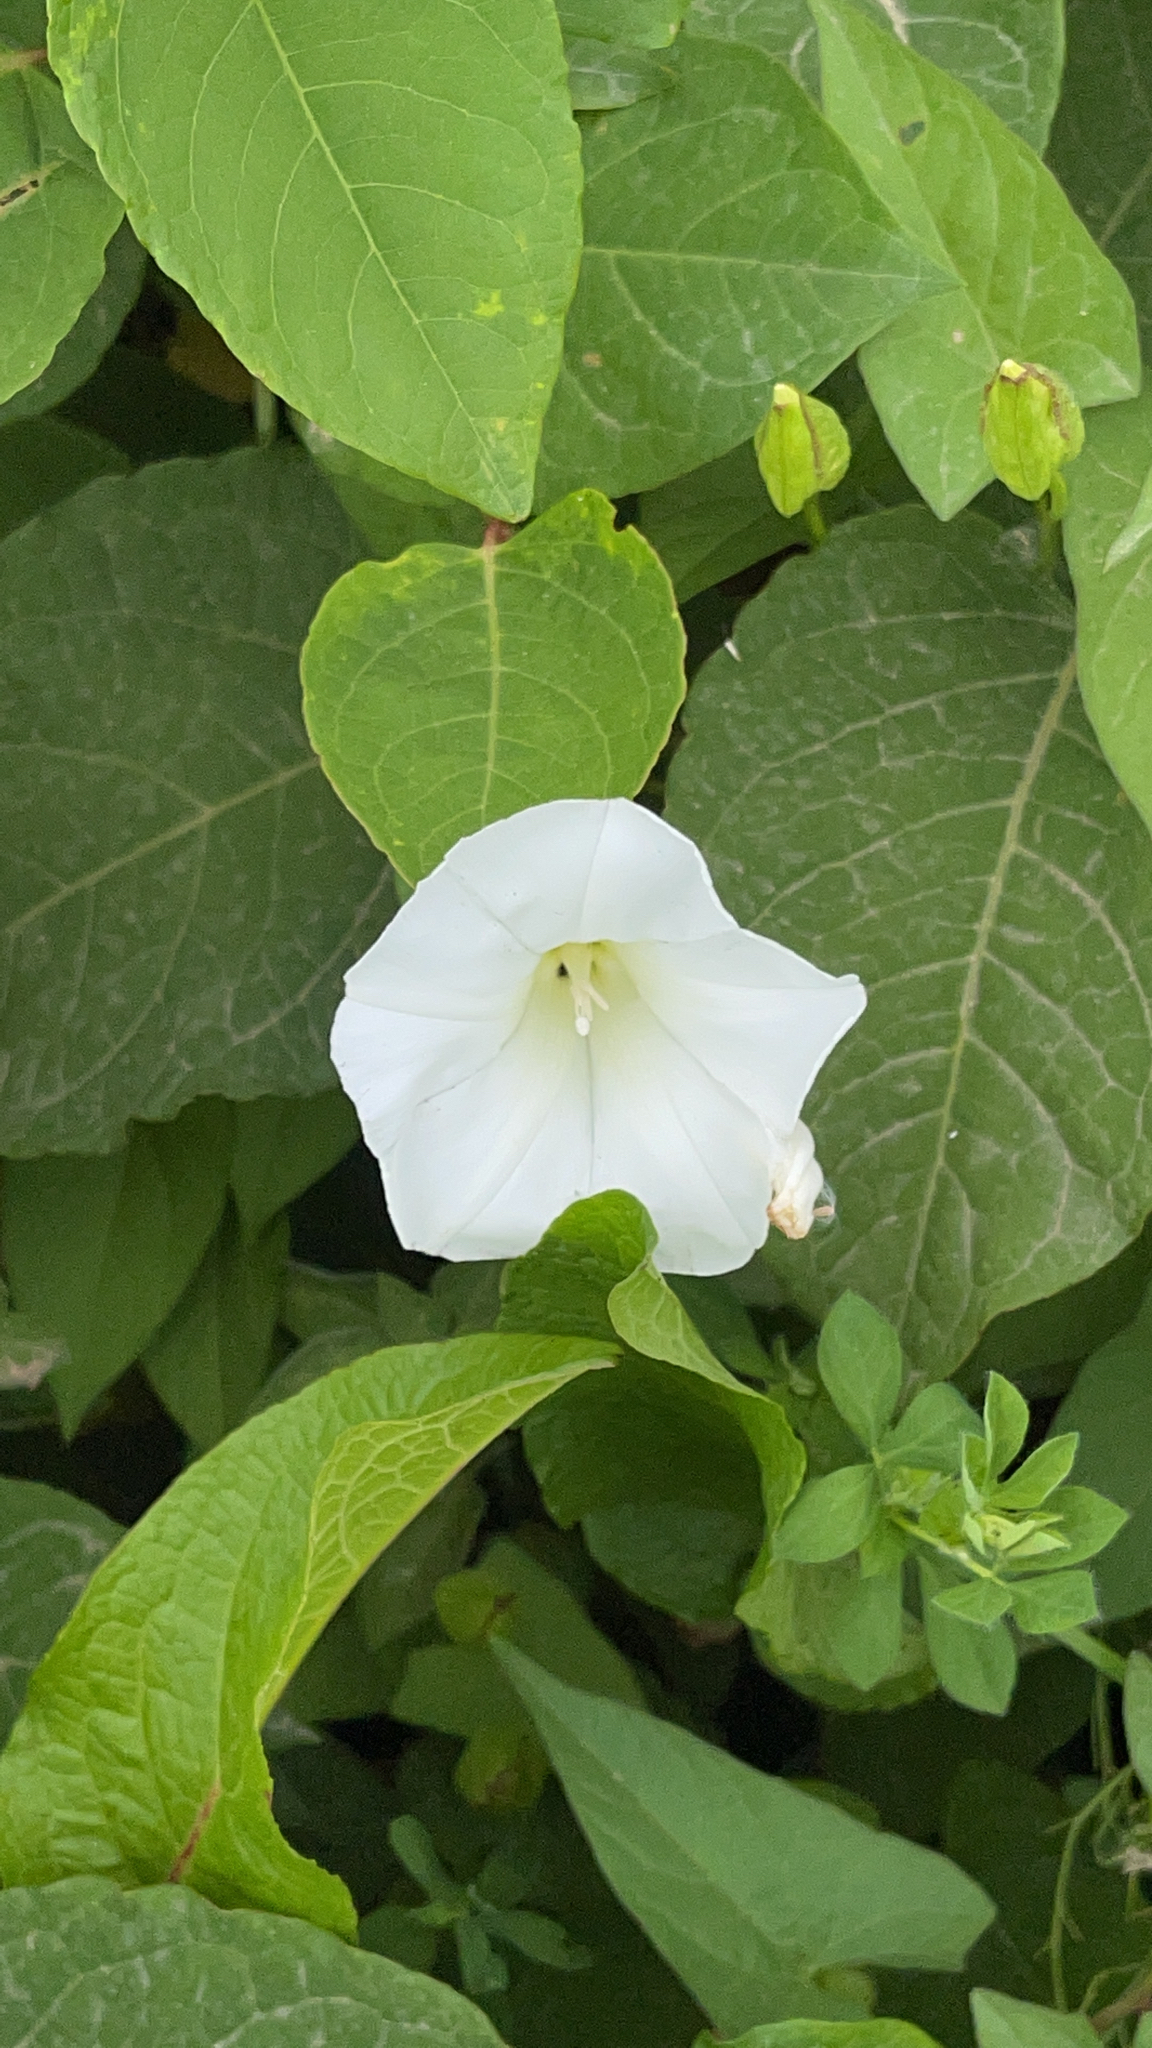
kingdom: Plantae
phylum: Tracheophyta
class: Magnoliopsida
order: Solanales
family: Convolvulaceae
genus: Calystegia
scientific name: Calystegia silvatica
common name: Large bindweed
